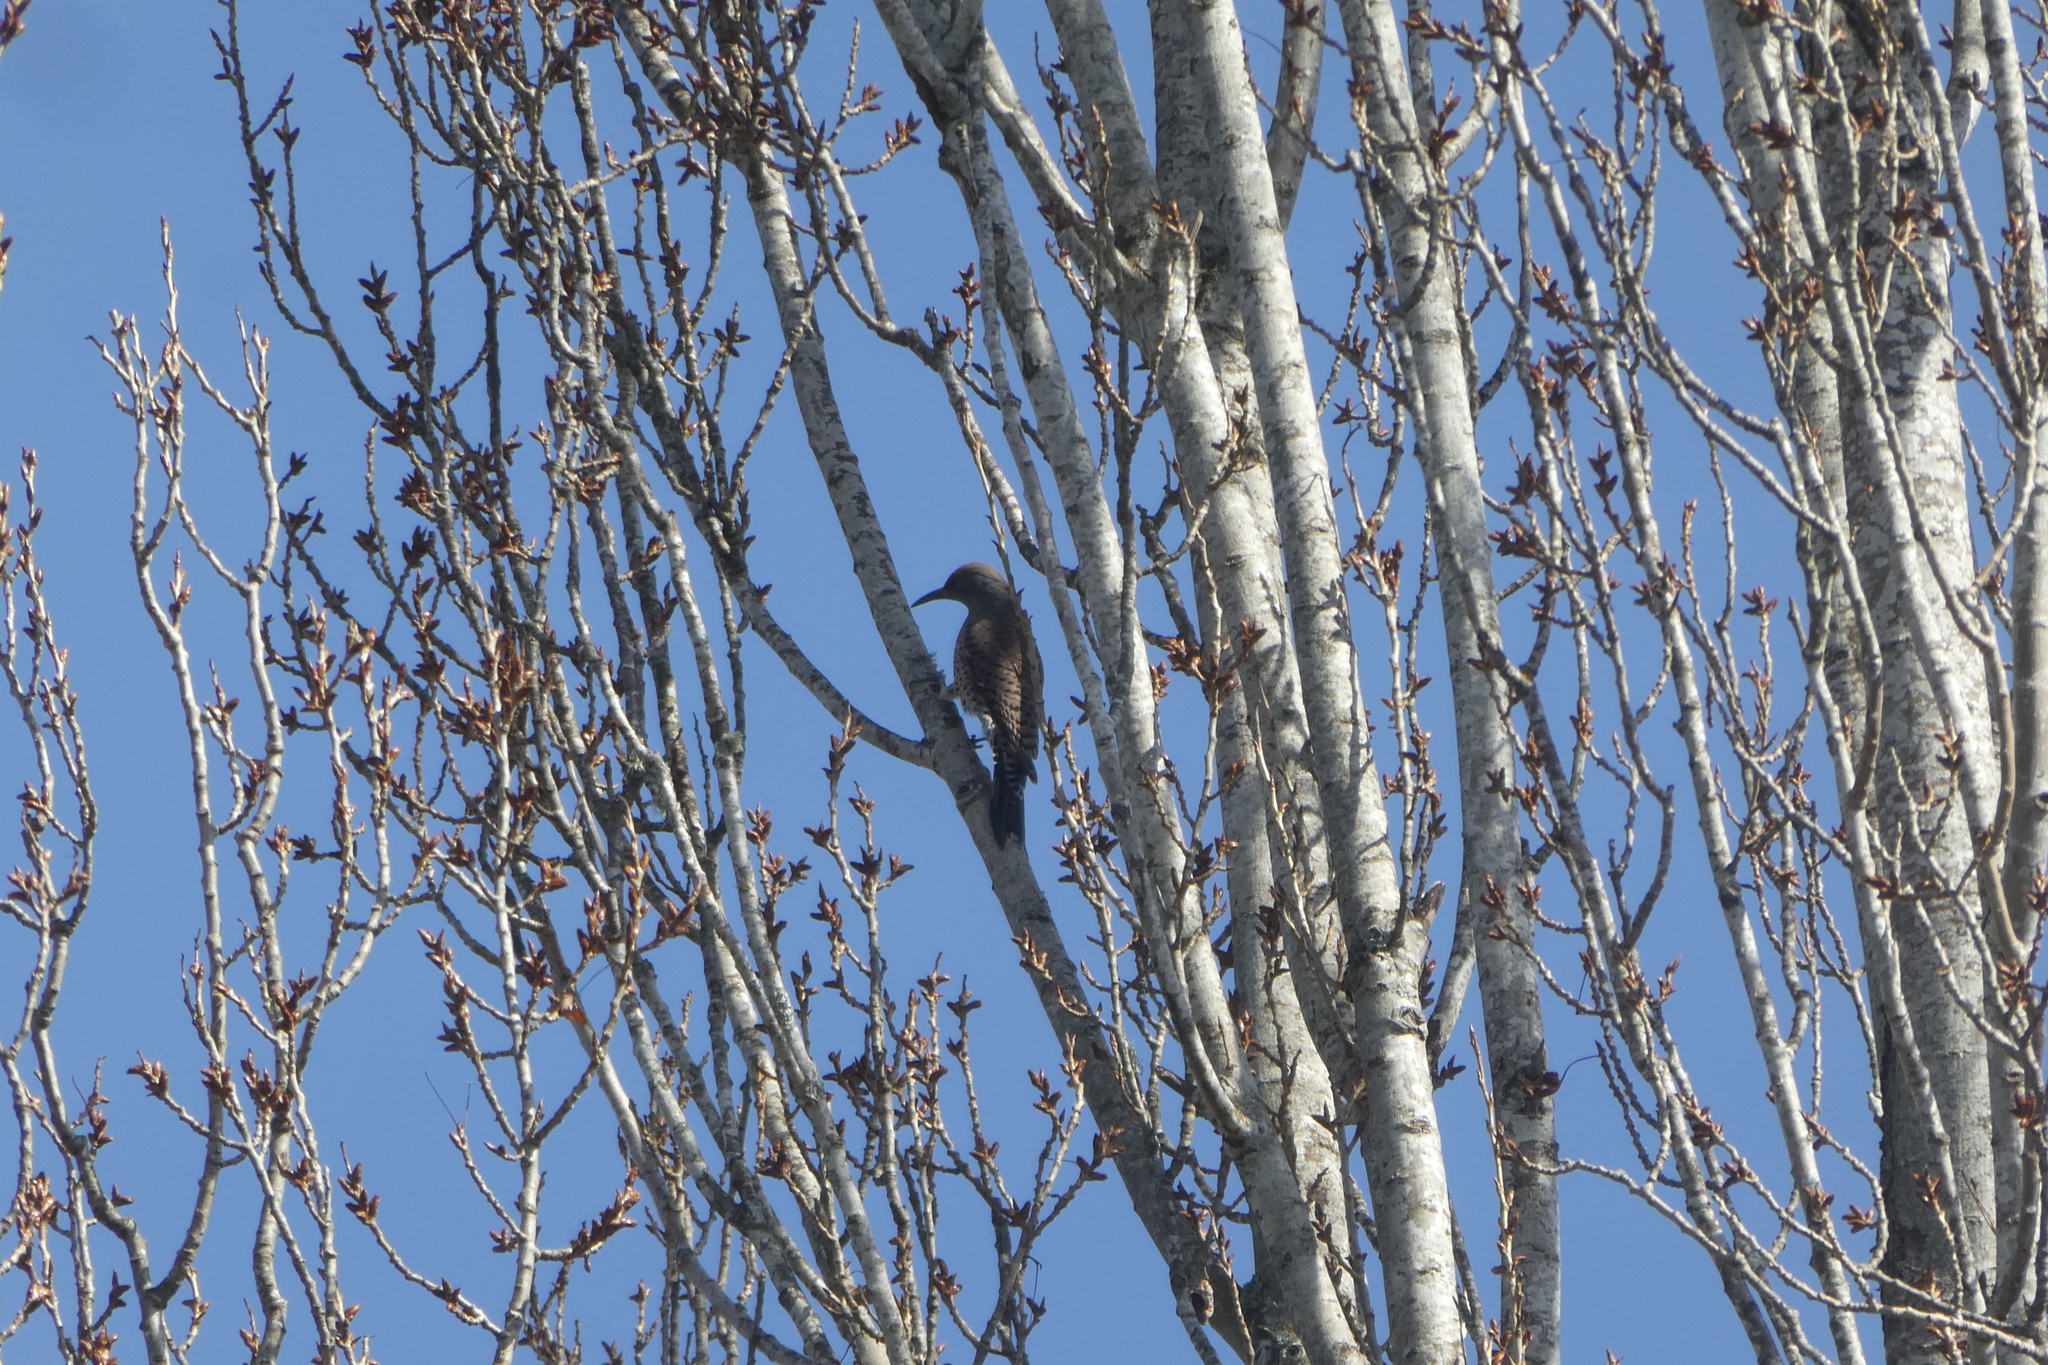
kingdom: Animalia
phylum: Chordata
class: Aves
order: Piciformes
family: Picidae
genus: Colaptes
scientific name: Colaptes auratus
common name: Northern flicker
